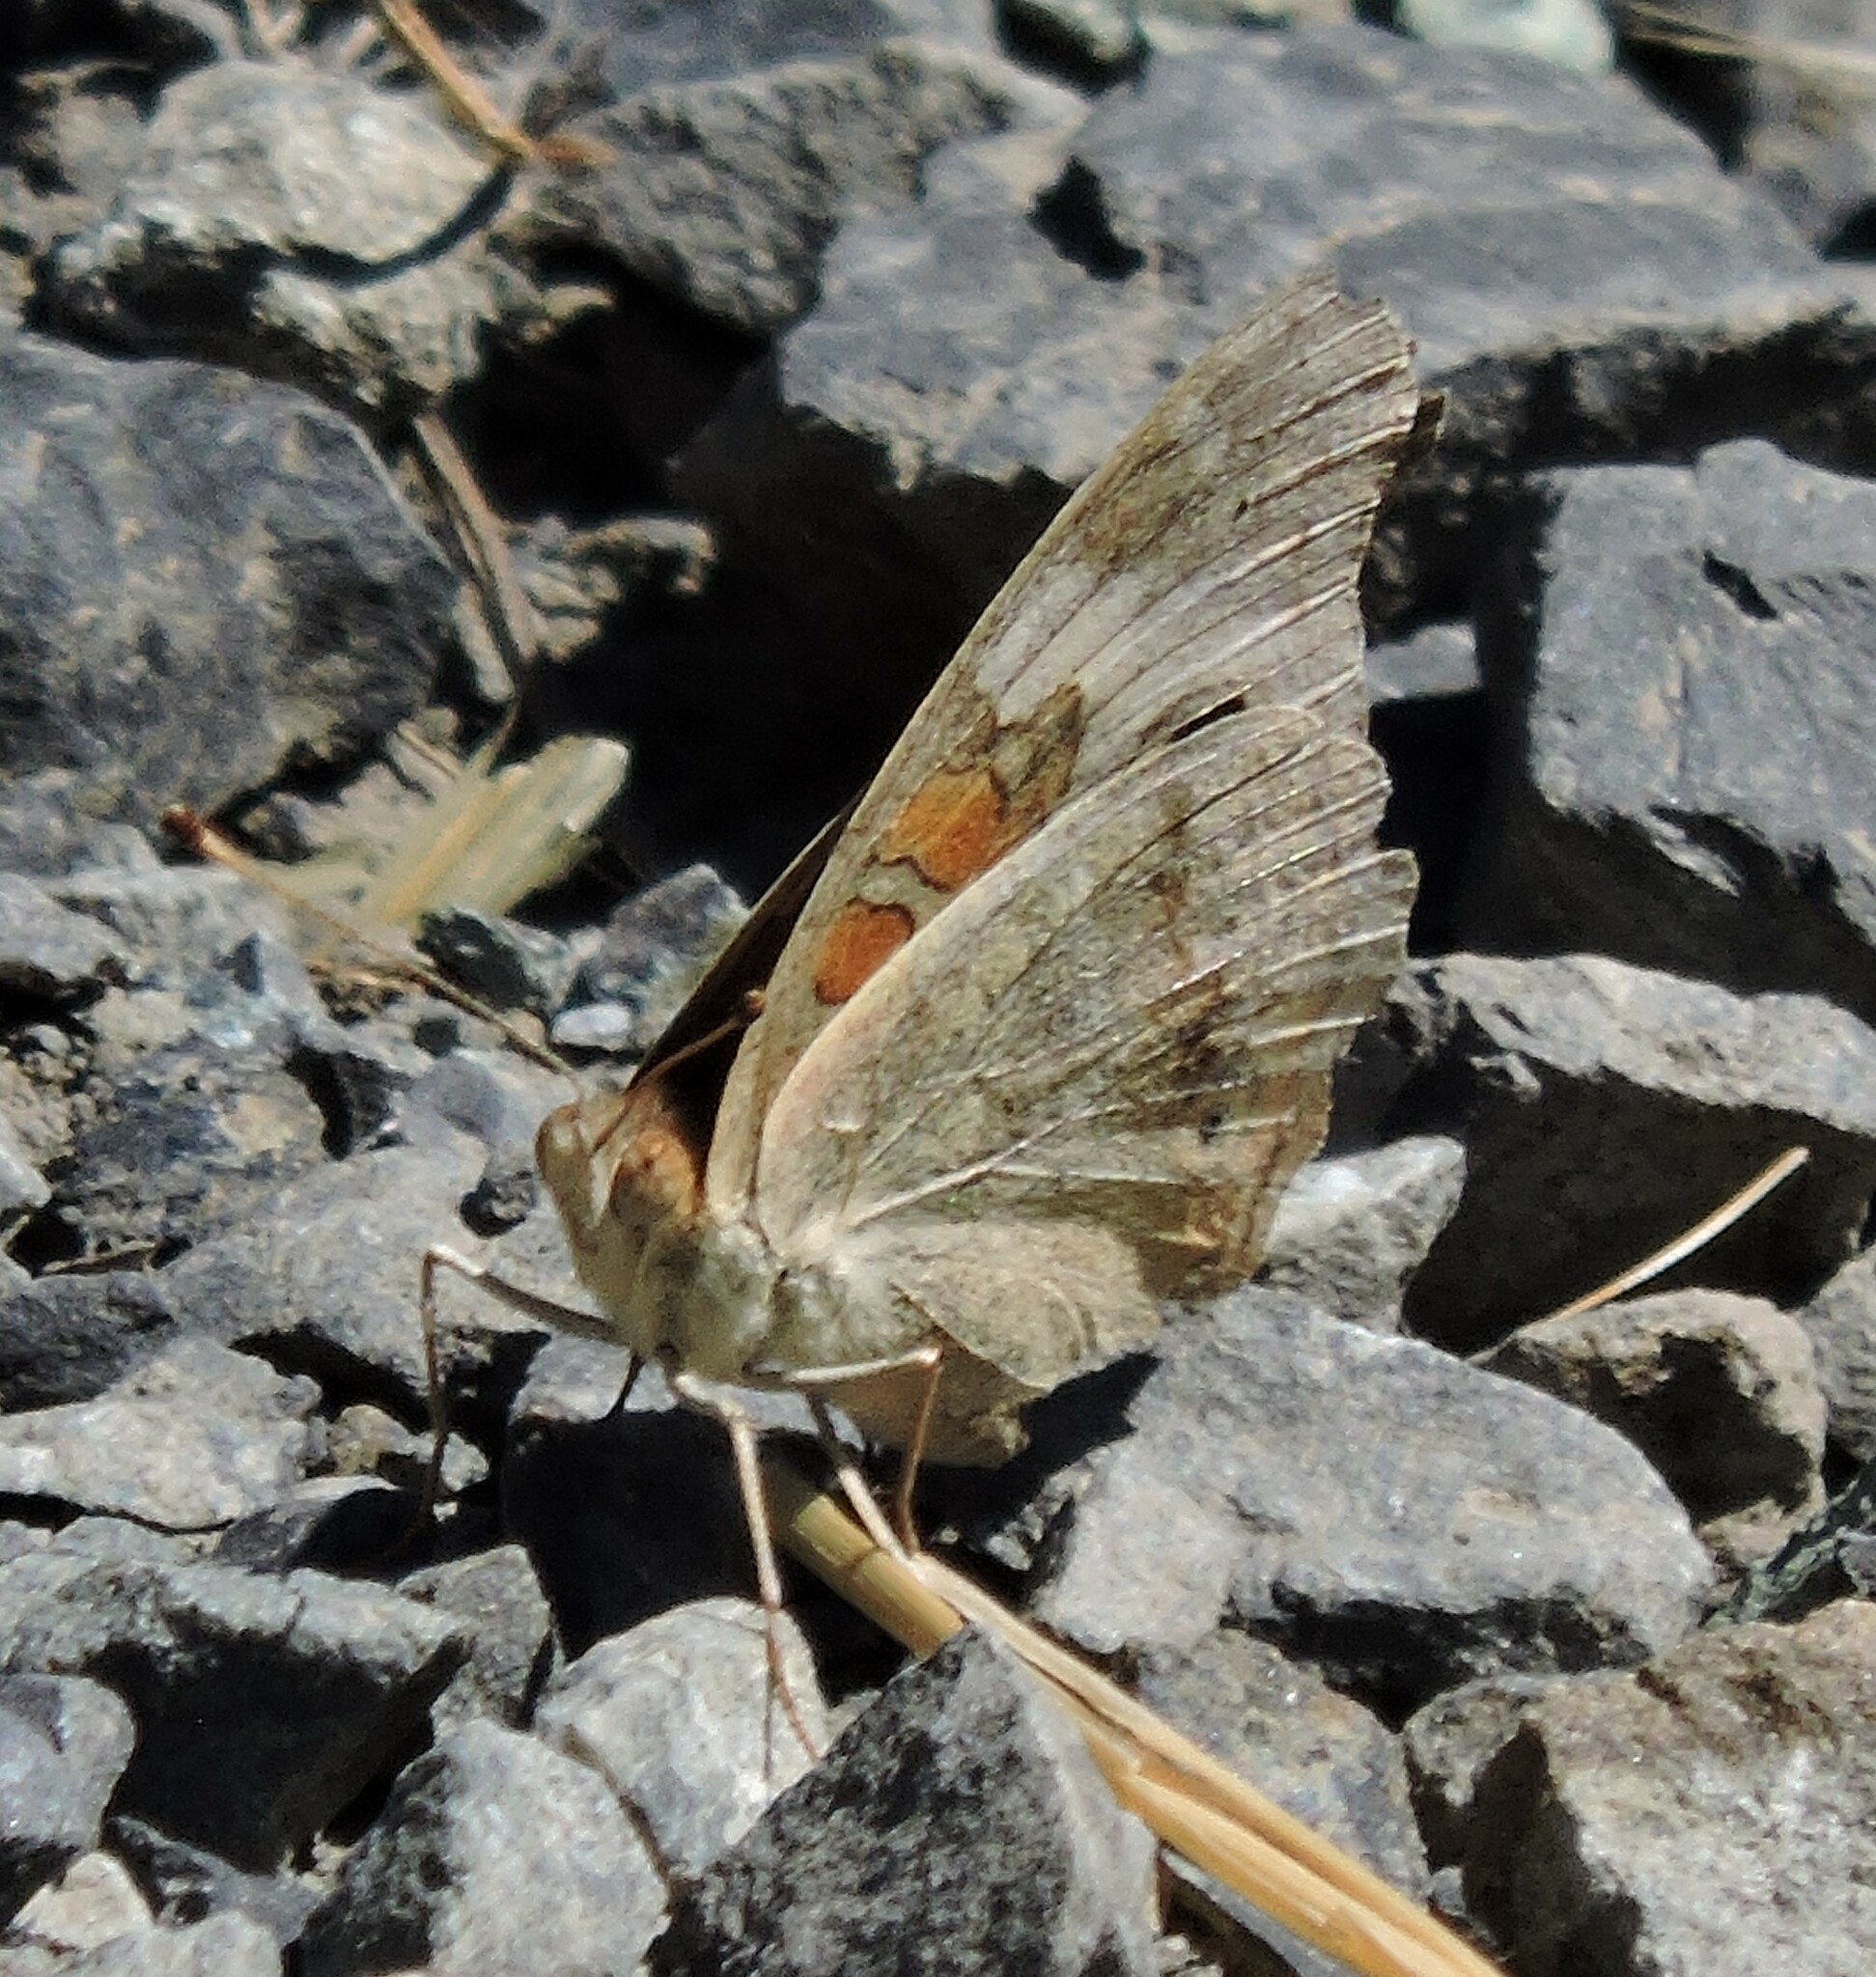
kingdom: Animalia
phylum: Arthropoda
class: Insecta
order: Lepidoptera
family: Nymphalidae
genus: Junonia
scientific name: Junonia grisea
